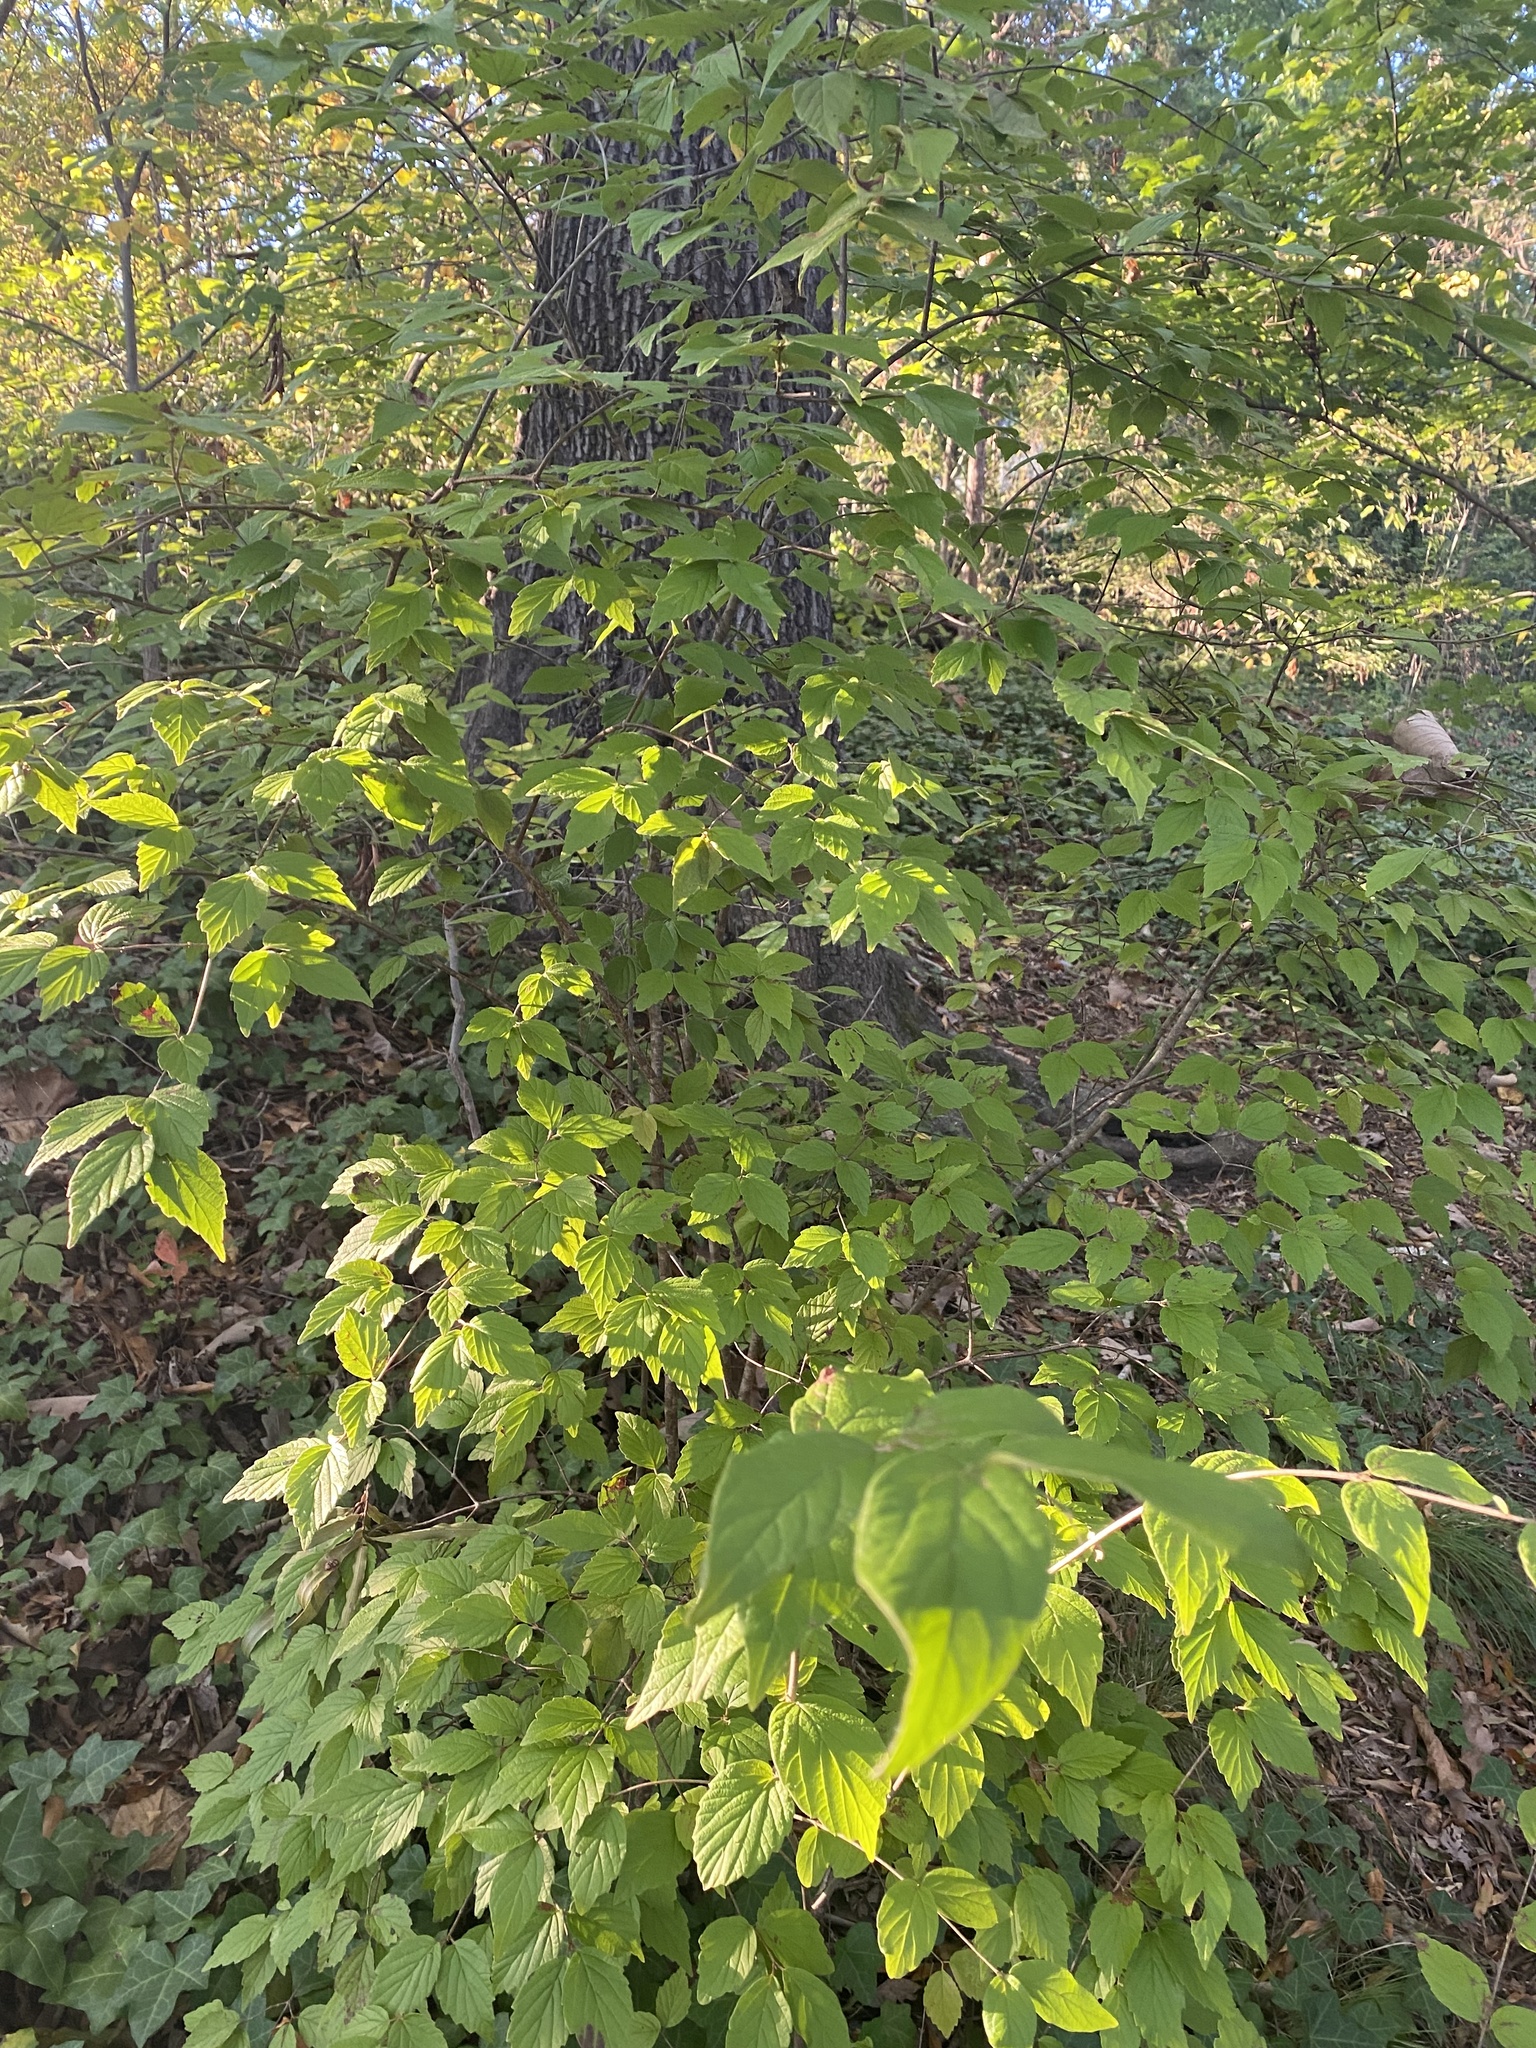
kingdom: Plantae
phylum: Tracheophyta
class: Magnoliopsida
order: Dipsacales
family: Viburnaceae
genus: Viburnum
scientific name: Viburnum rafinesqueanum
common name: Downy arrow-wood
